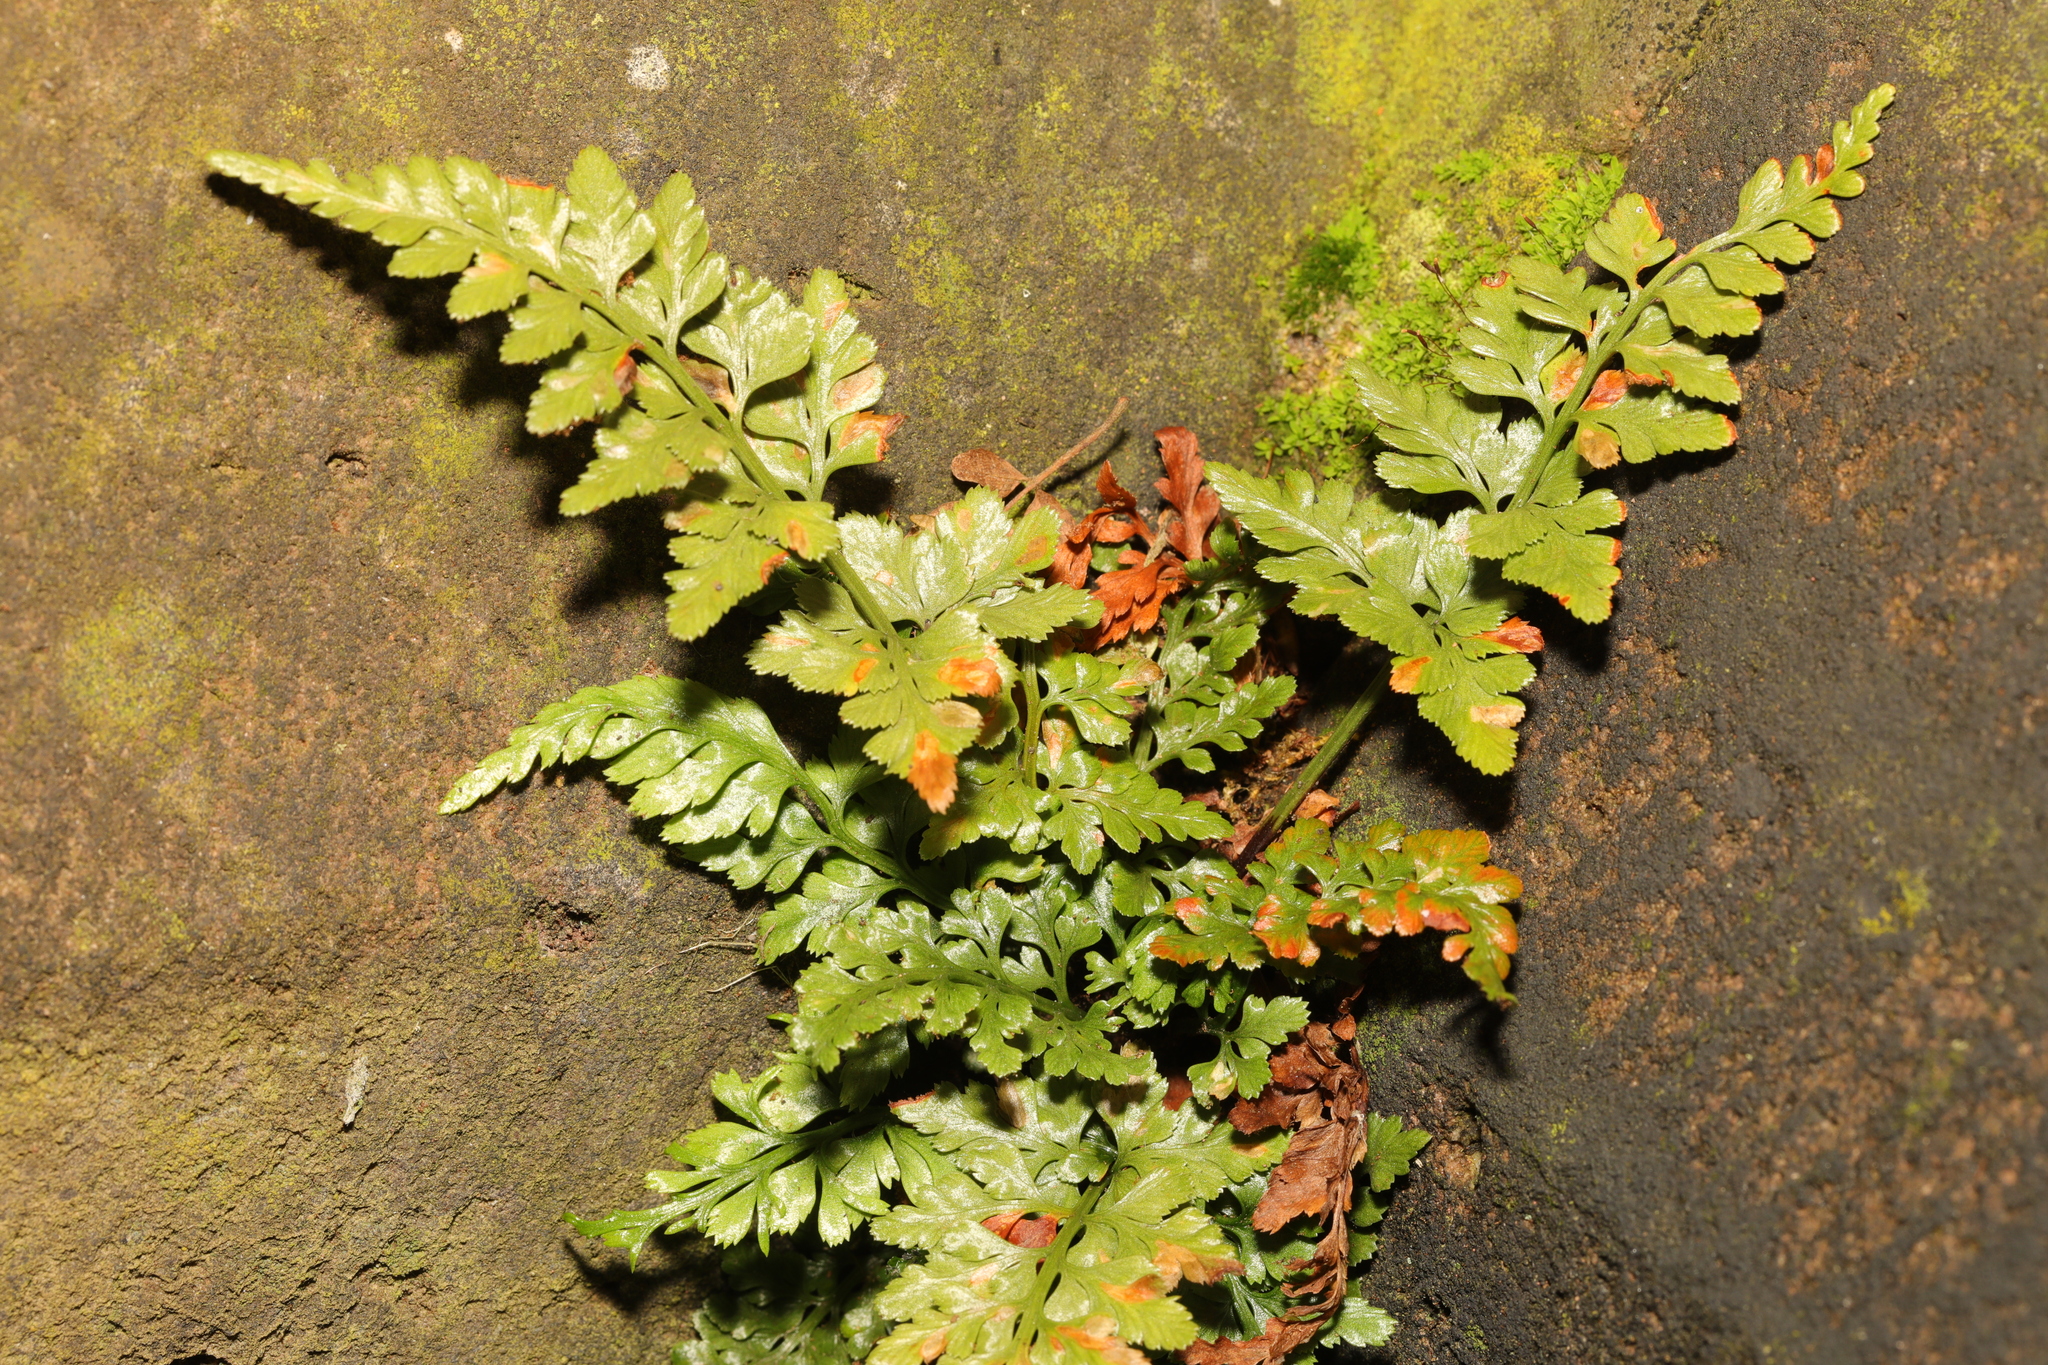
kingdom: Plantae
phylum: Tracheophyta
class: Polypodiopsida
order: Polypodiales
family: Aspleniaceae
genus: Asplenium
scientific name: Asplenium adiantum-nigrum
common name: Black spleenwort
